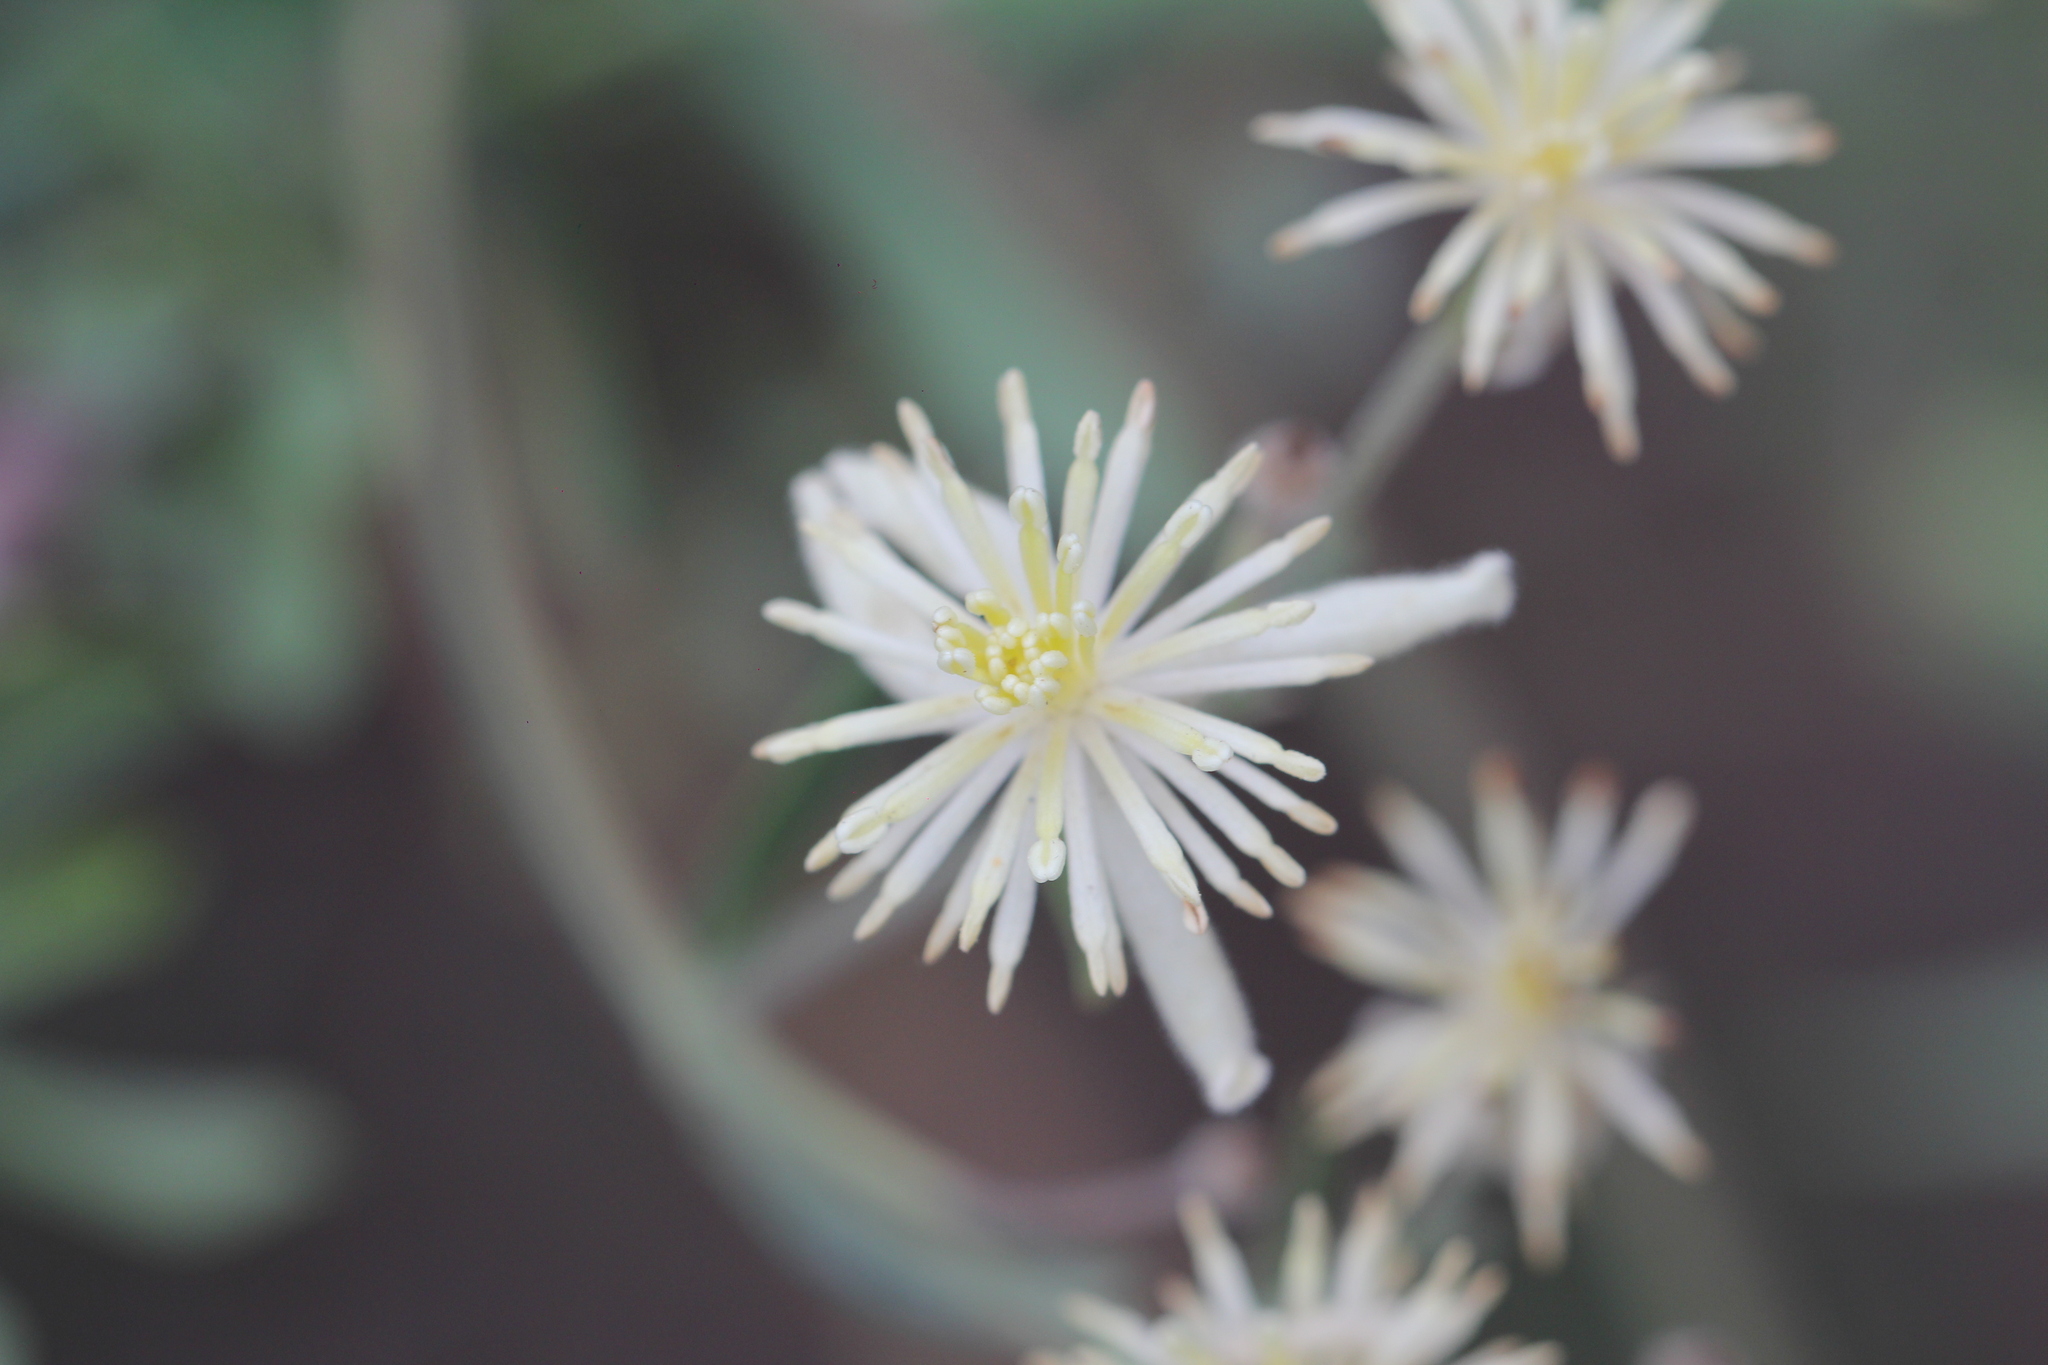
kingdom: Plantae
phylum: Tracheophyta
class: Magnoliopsida
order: Ranunculales
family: Ranunculaceae
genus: Clematis
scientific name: Clematis montevidensis
